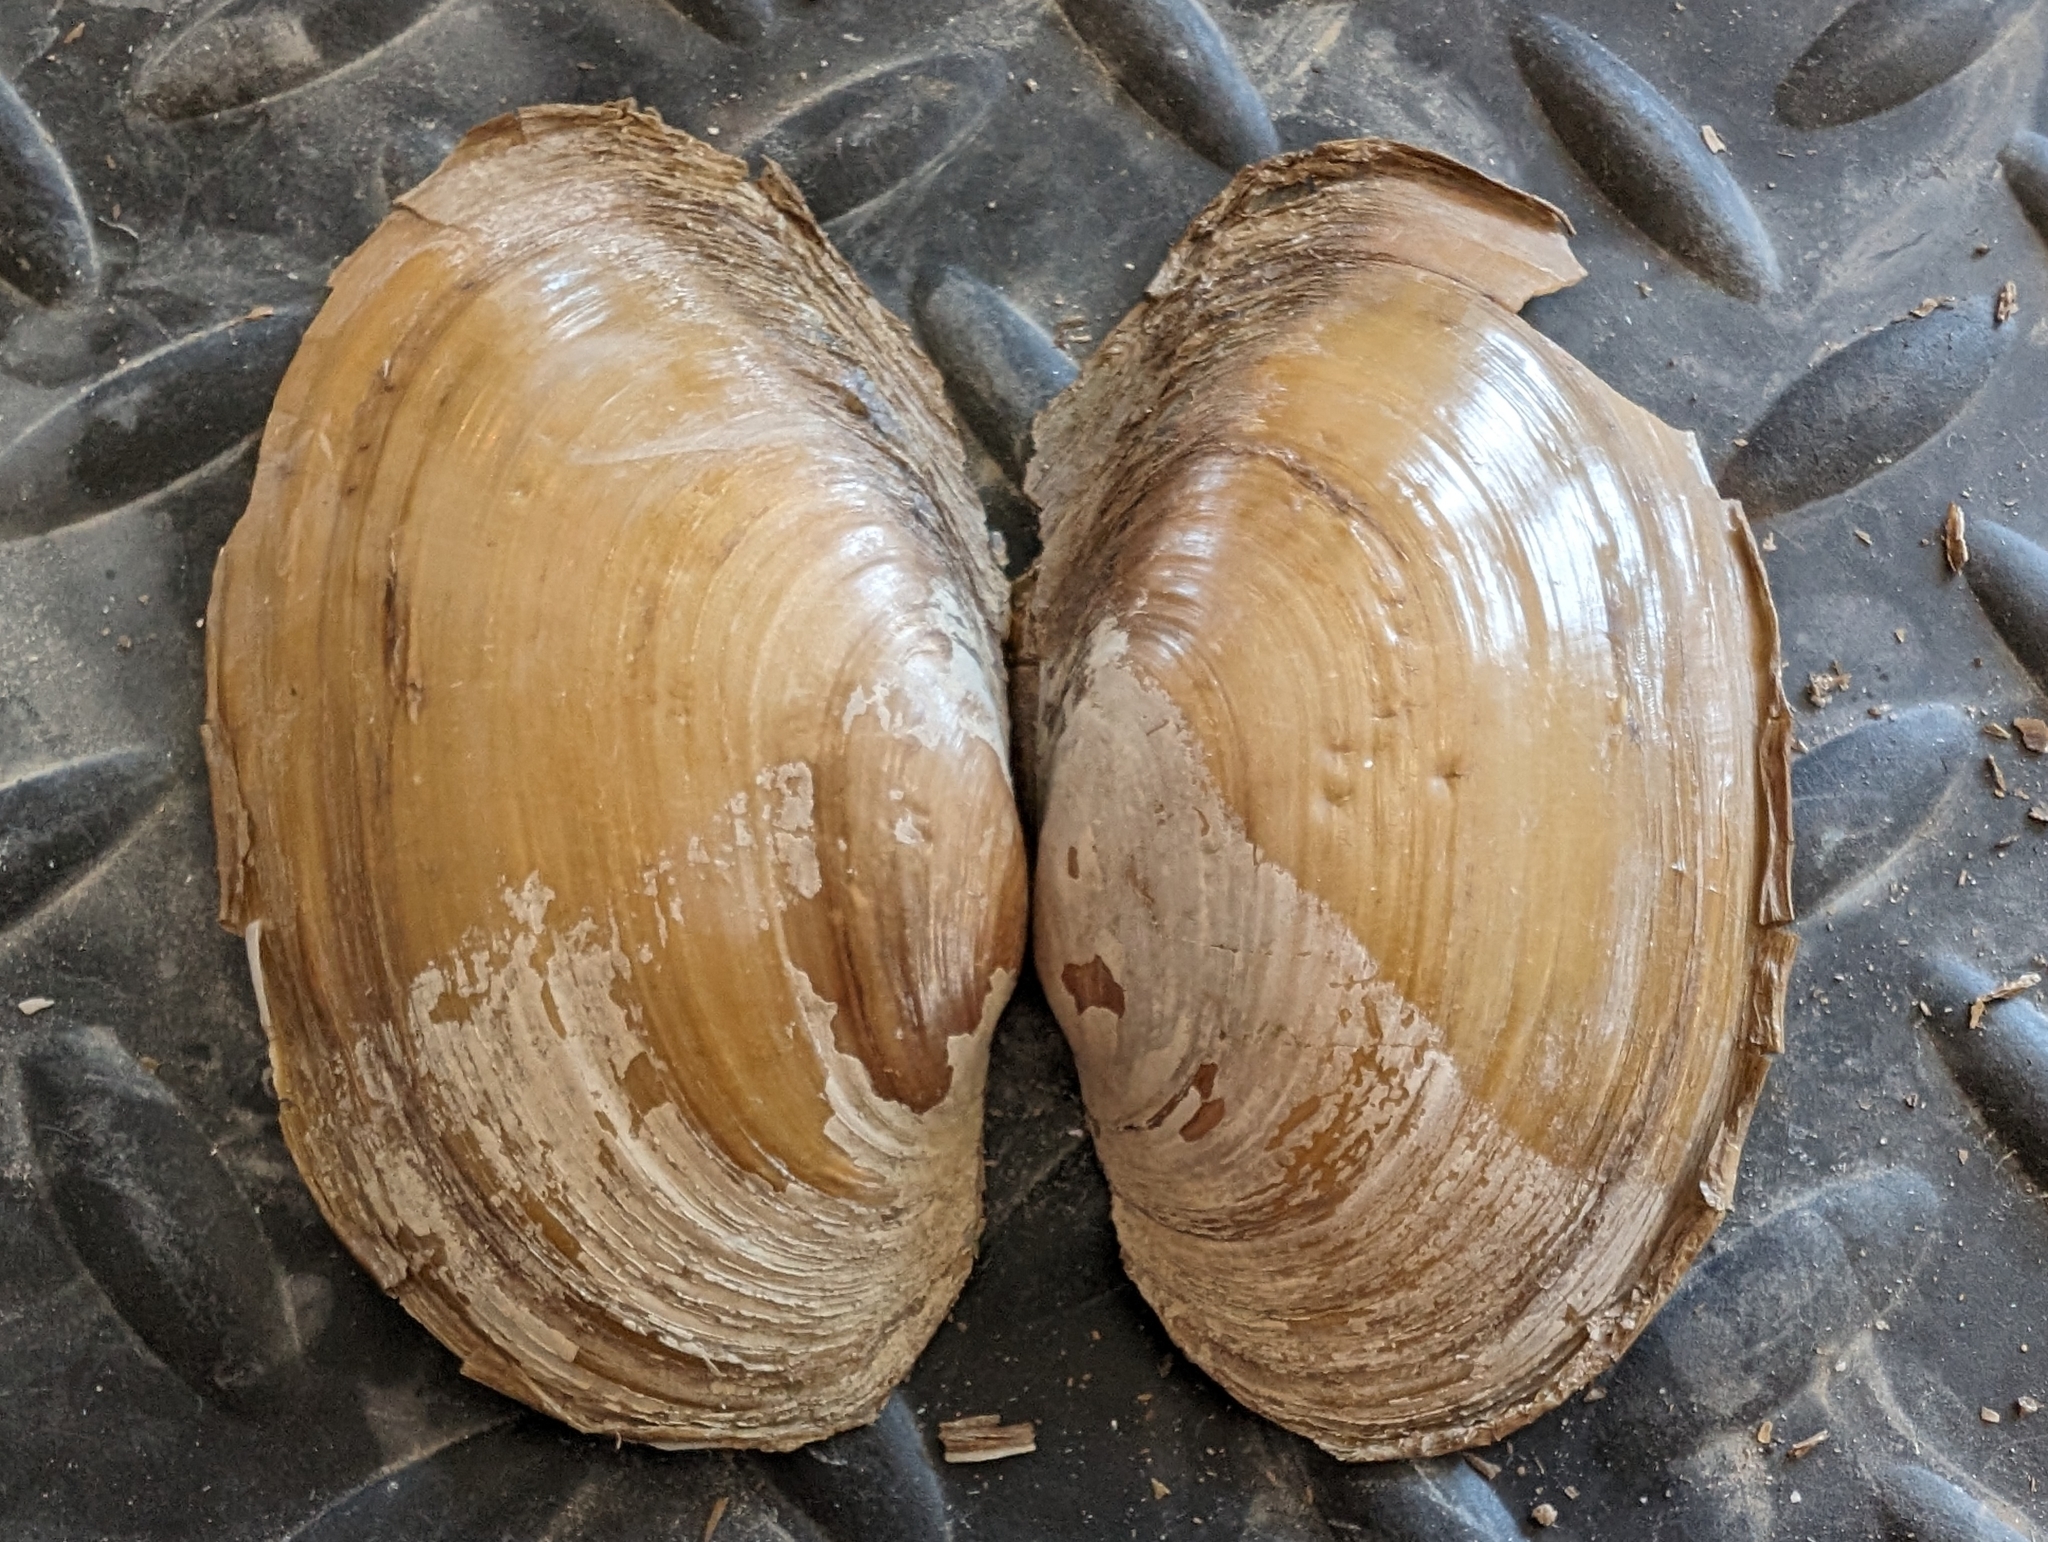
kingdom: Animalia
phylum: Mollusca
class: Bivalvia
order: Unionida
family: Unionidae
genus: Potamilus
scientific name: Potamilus fragilis
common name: Fragile papershell
